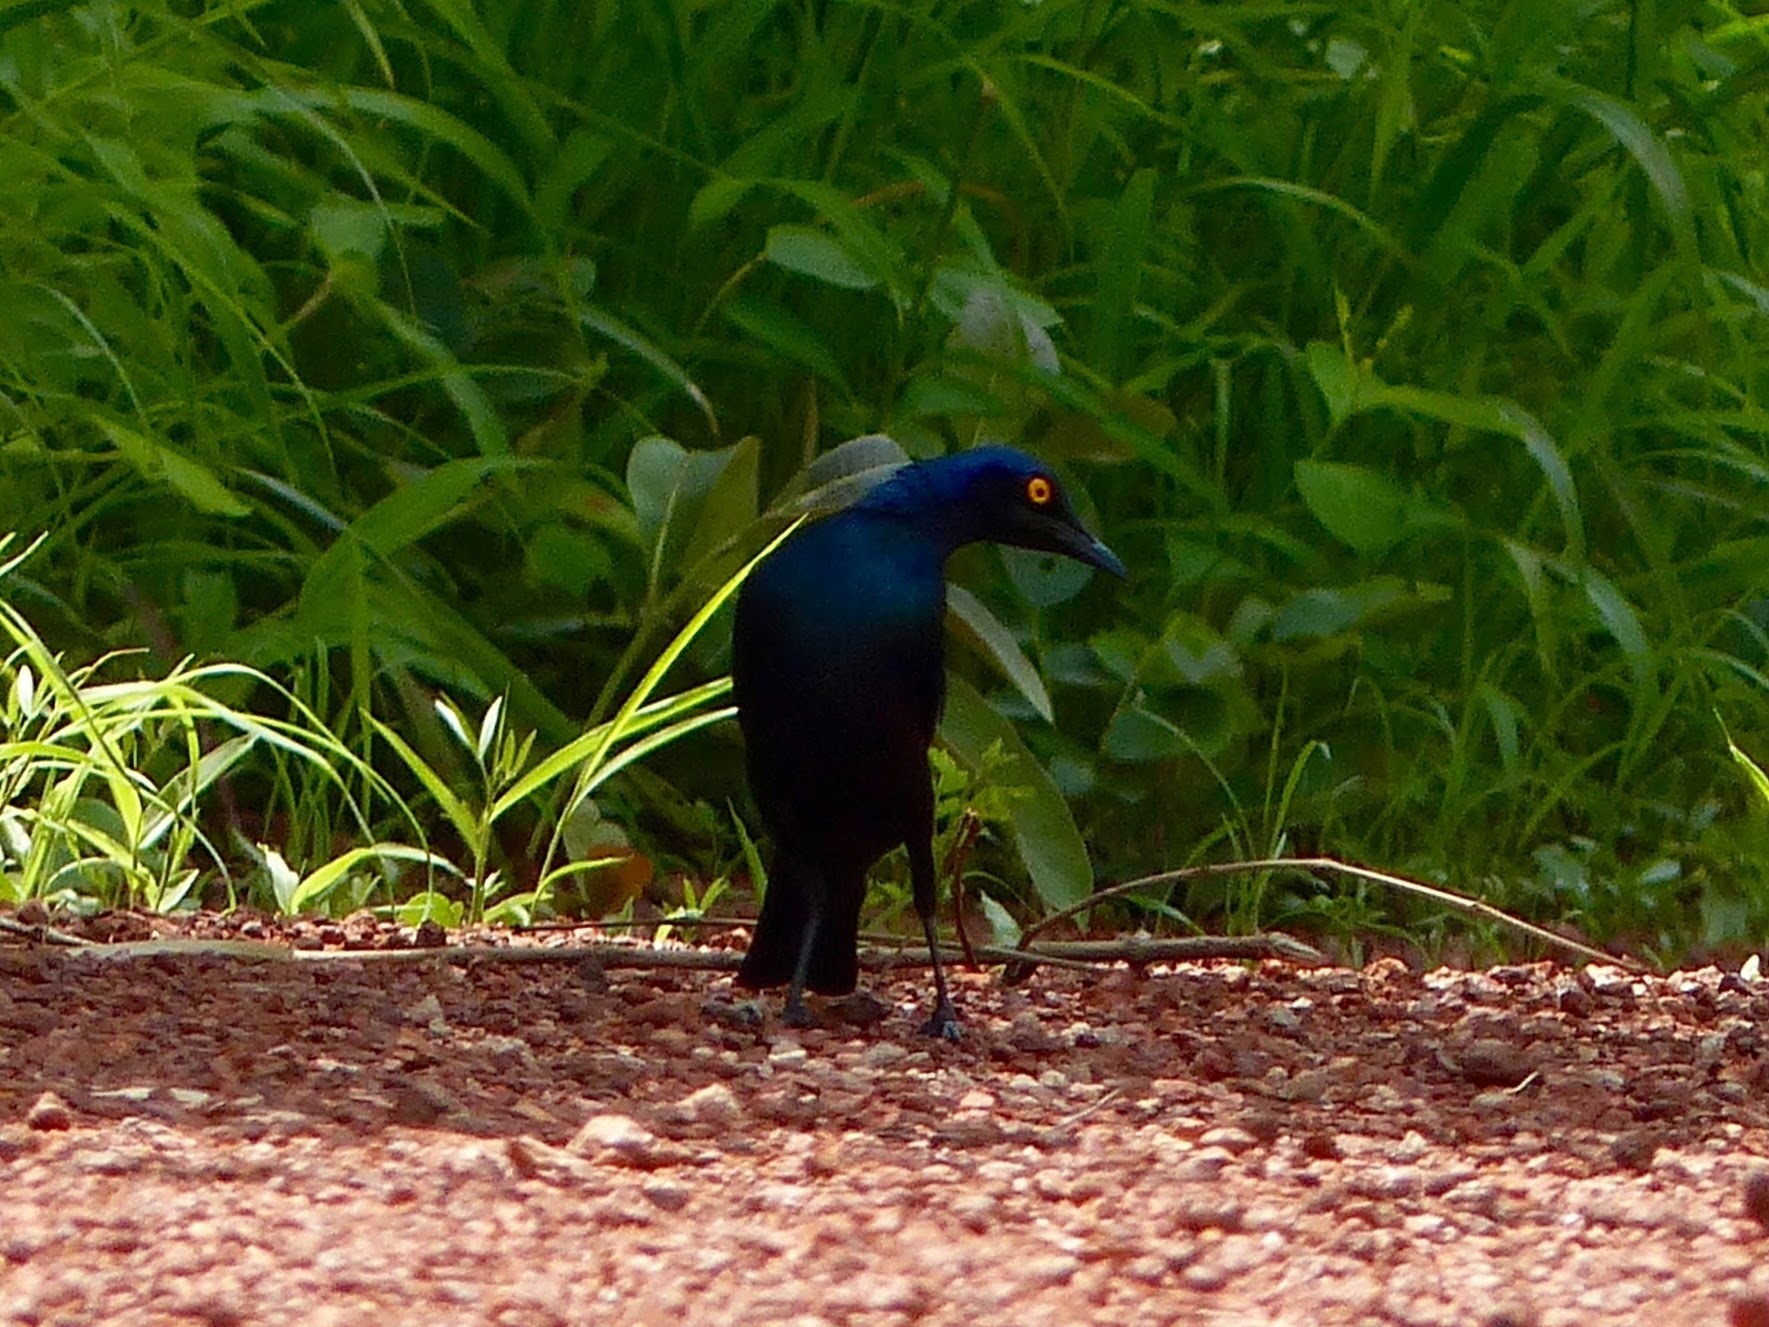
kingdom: Animalia
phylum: Chordata
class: Aves
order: Passeriformes
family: Sturnidae
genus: Lamprotornis
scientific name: Lamprotornis chalybaeus
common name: Greater blue-eared starling
